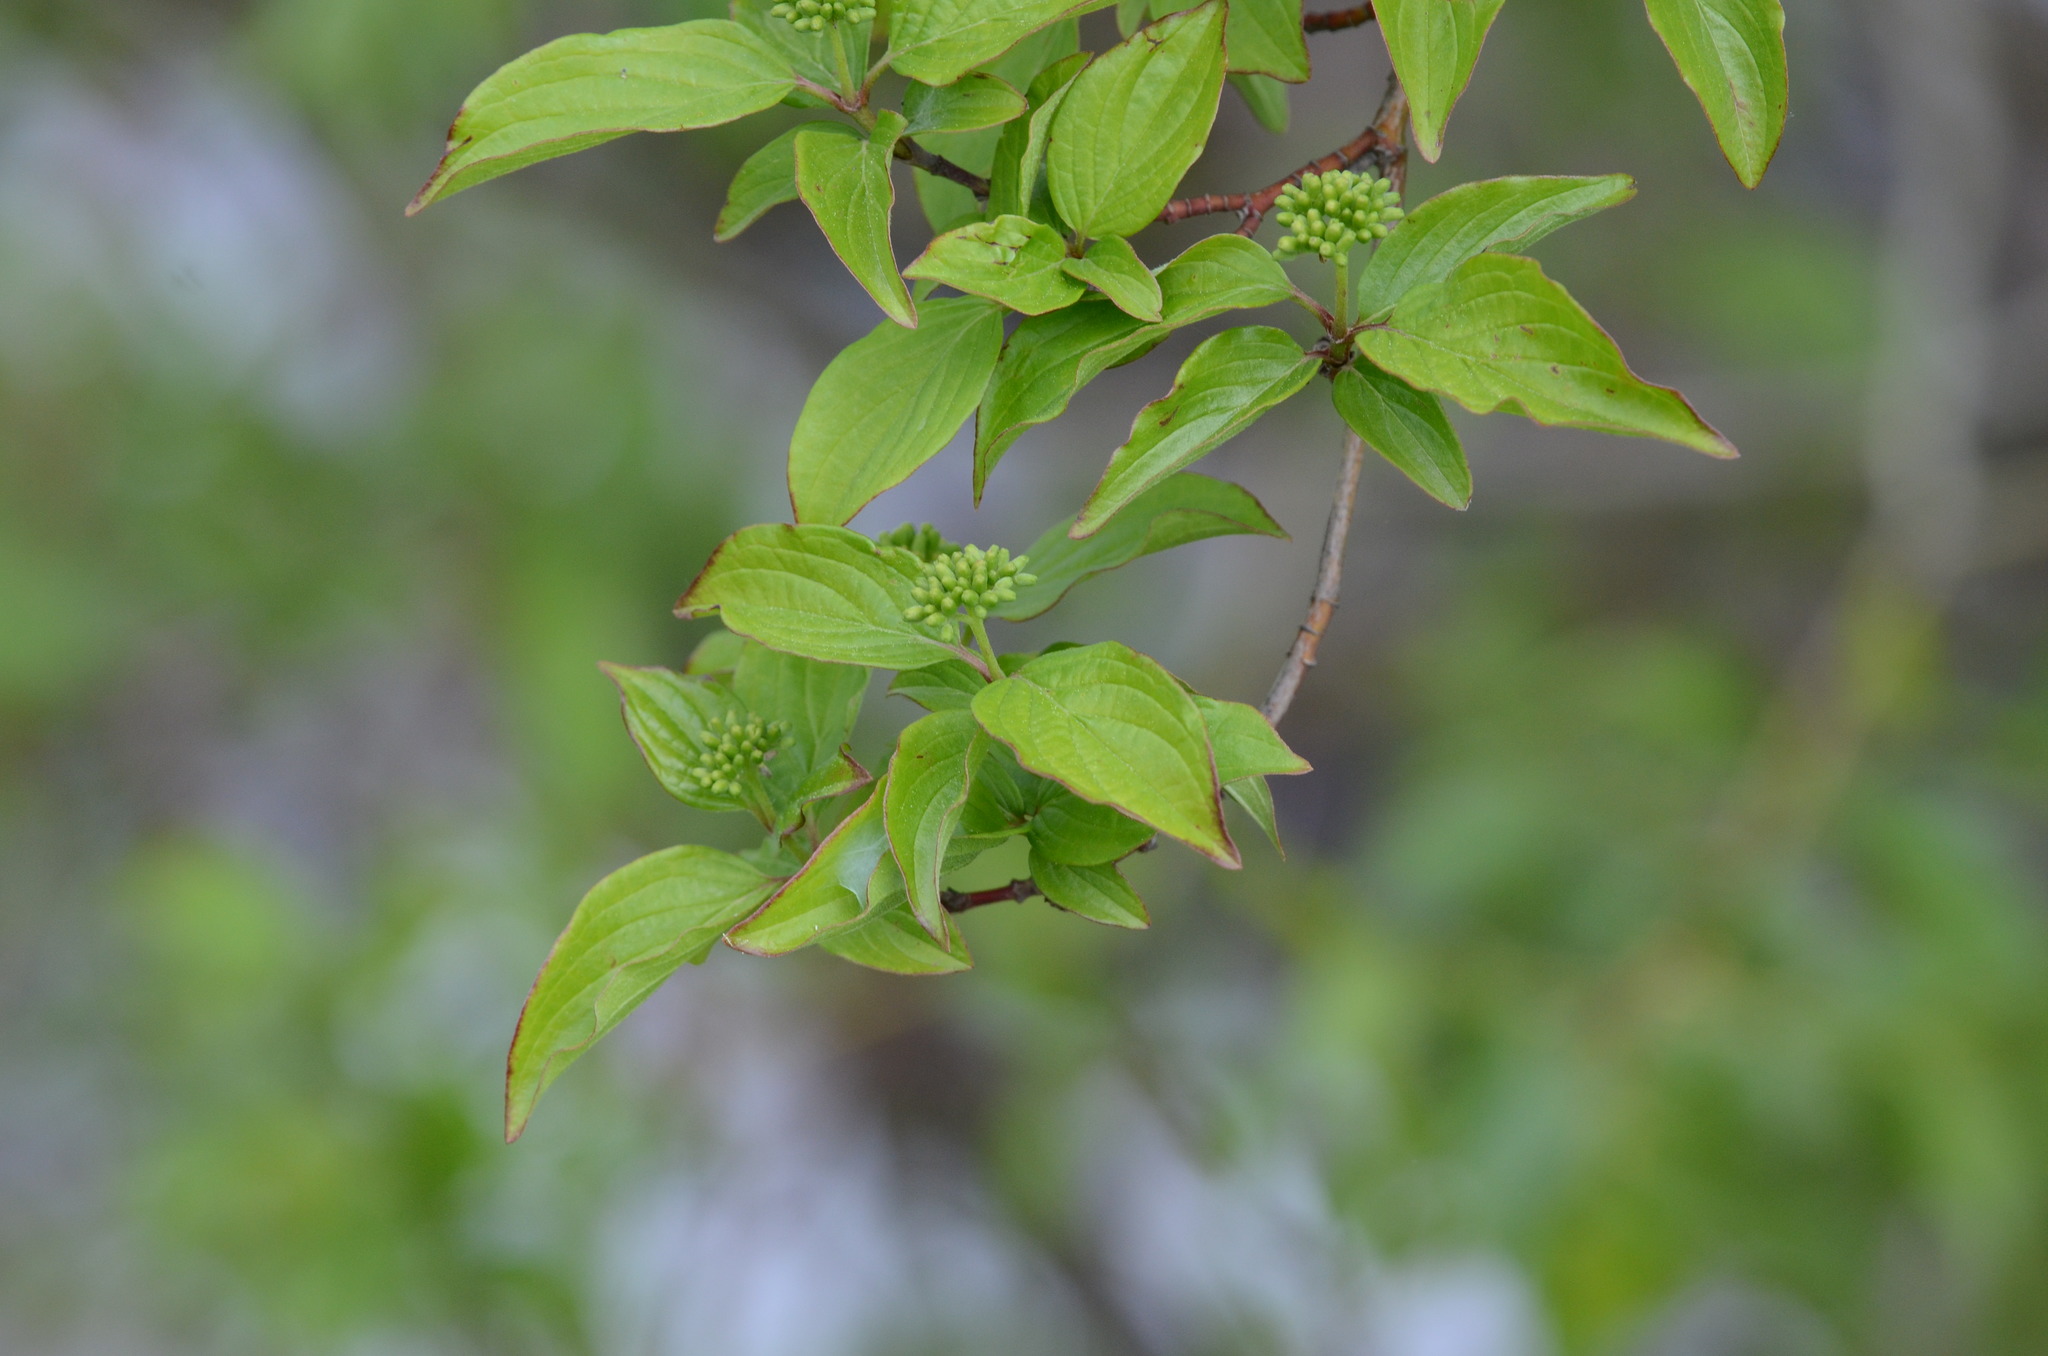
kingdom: Plantae
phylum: Tracheophyta
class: Magnoliopsida
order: Cornales
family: Cornaceae
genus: Cornus
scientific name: Cornus sanguinea
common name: Dogwood
